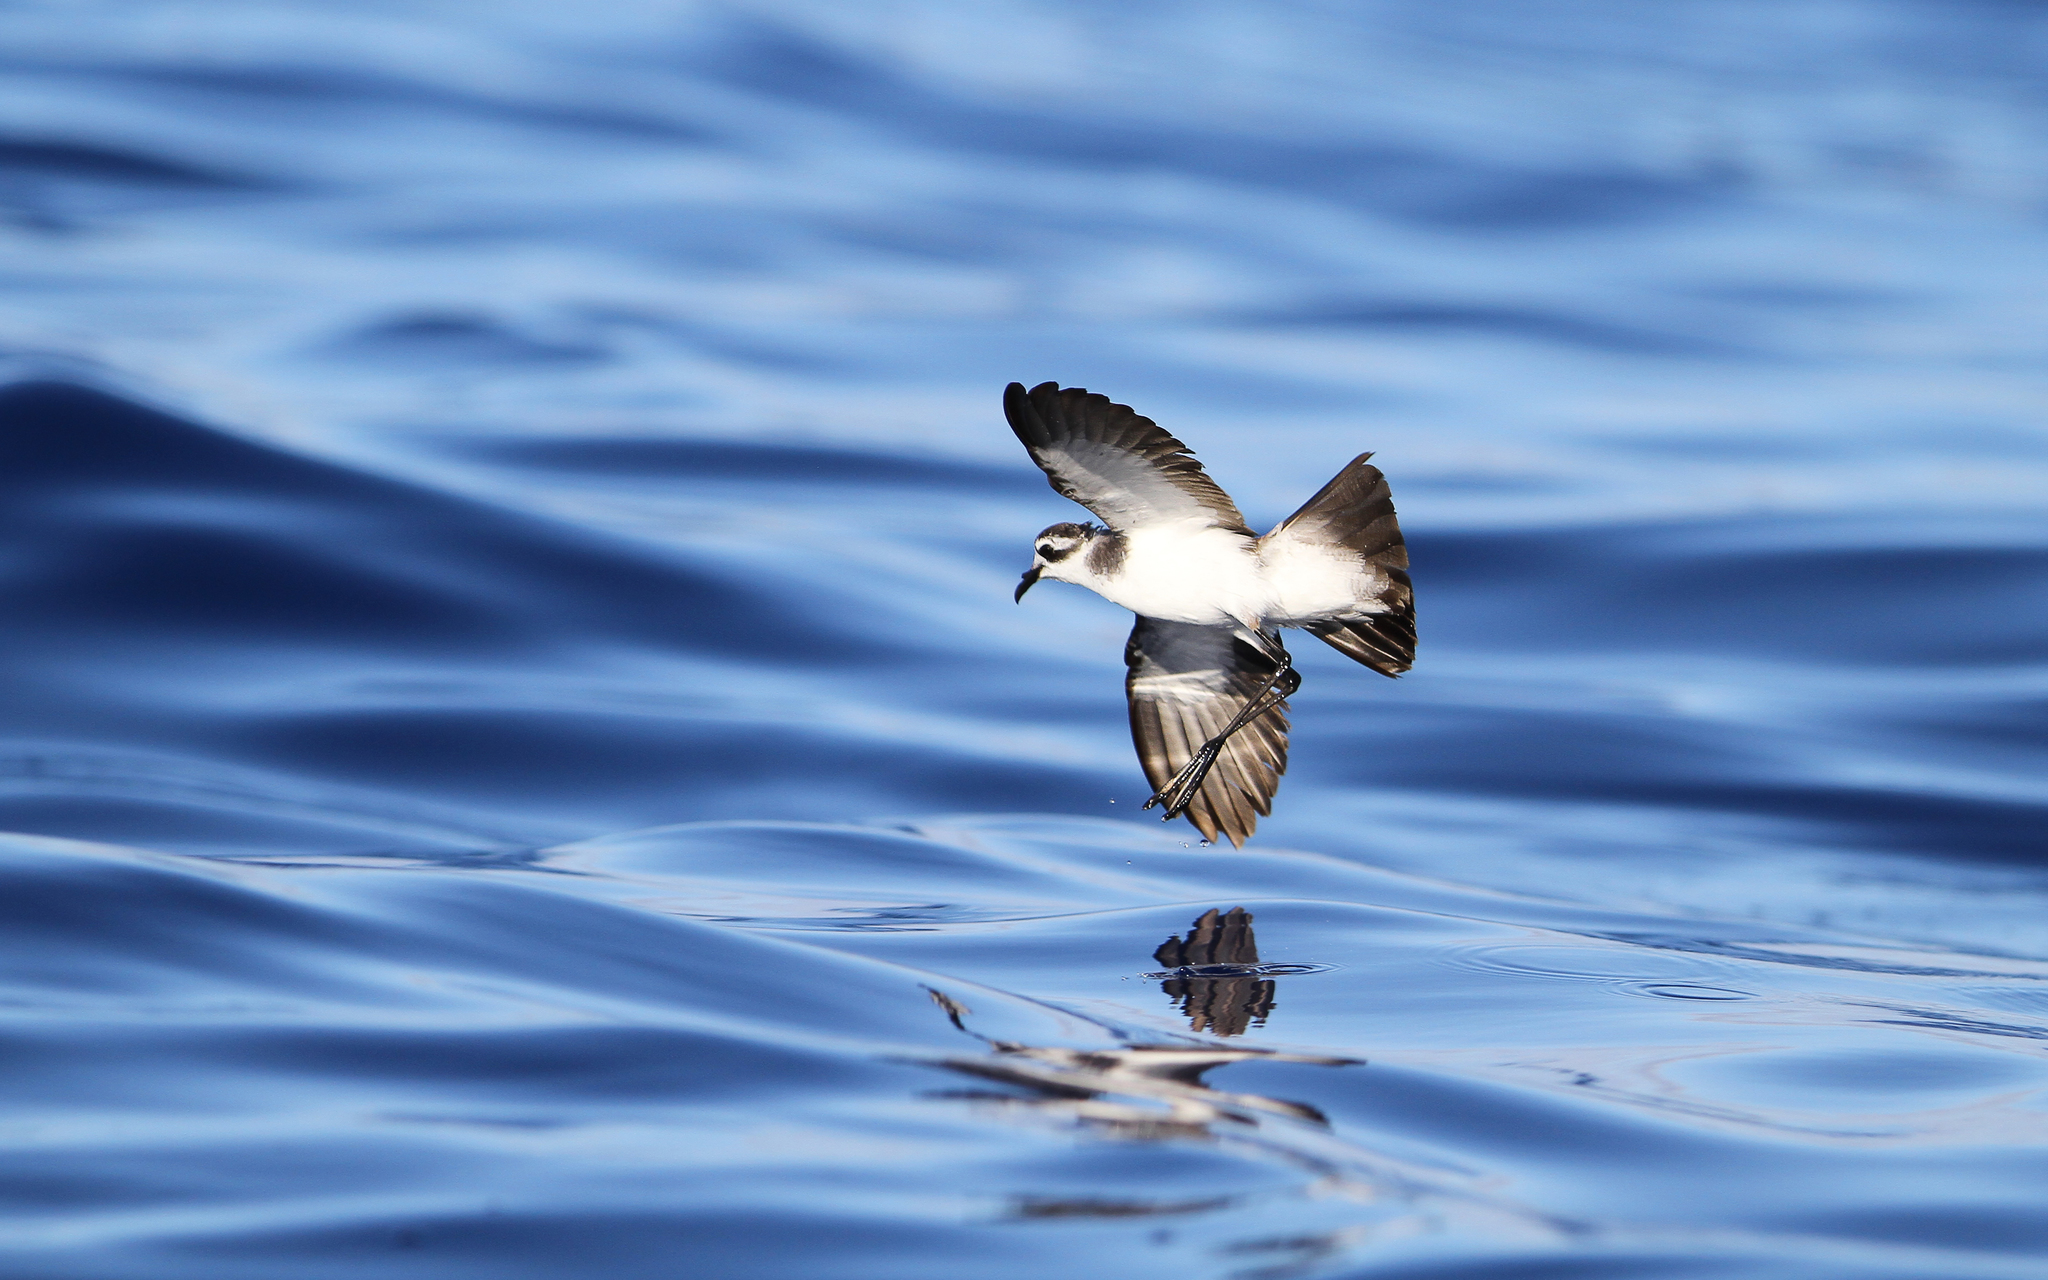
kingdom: Animalia
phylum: Chordata
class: Aves
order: Procellariiformes
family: Hydrobatidae
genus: Pelagodroma
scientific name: Pelagodroma marina
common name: White-faced storm-petrel
